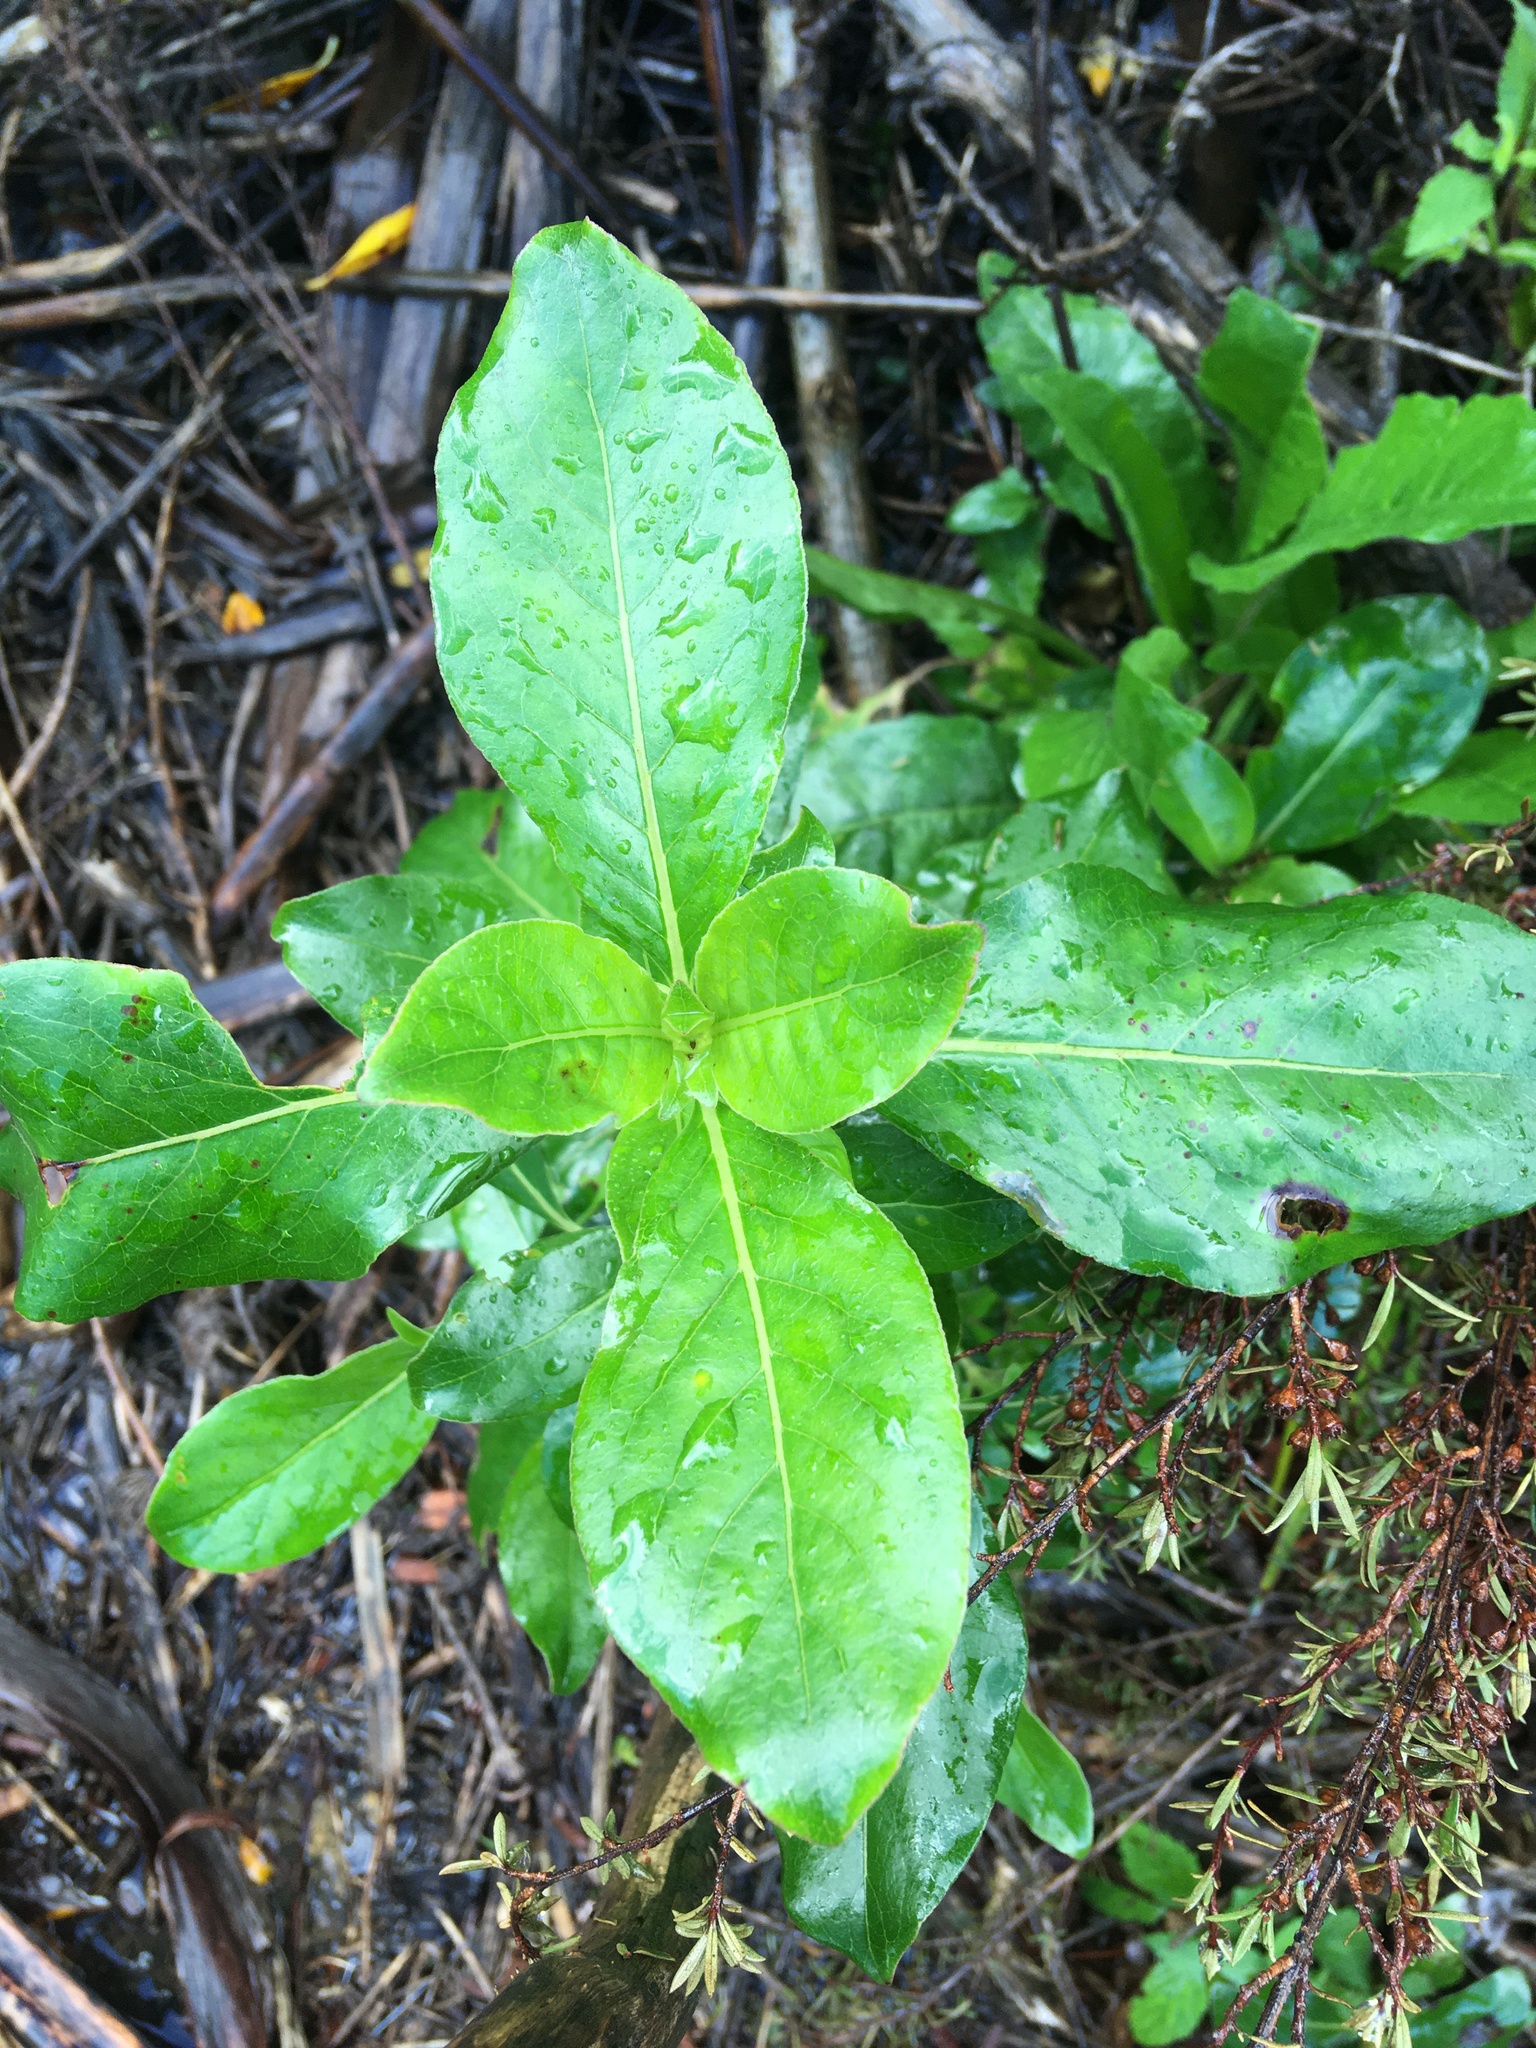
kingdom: Plantae
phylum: Tracheophyta
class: Magnoliopsida
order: Gentianales
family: Rubiaceae
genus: Coprosma
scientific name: Coprosma robusta
